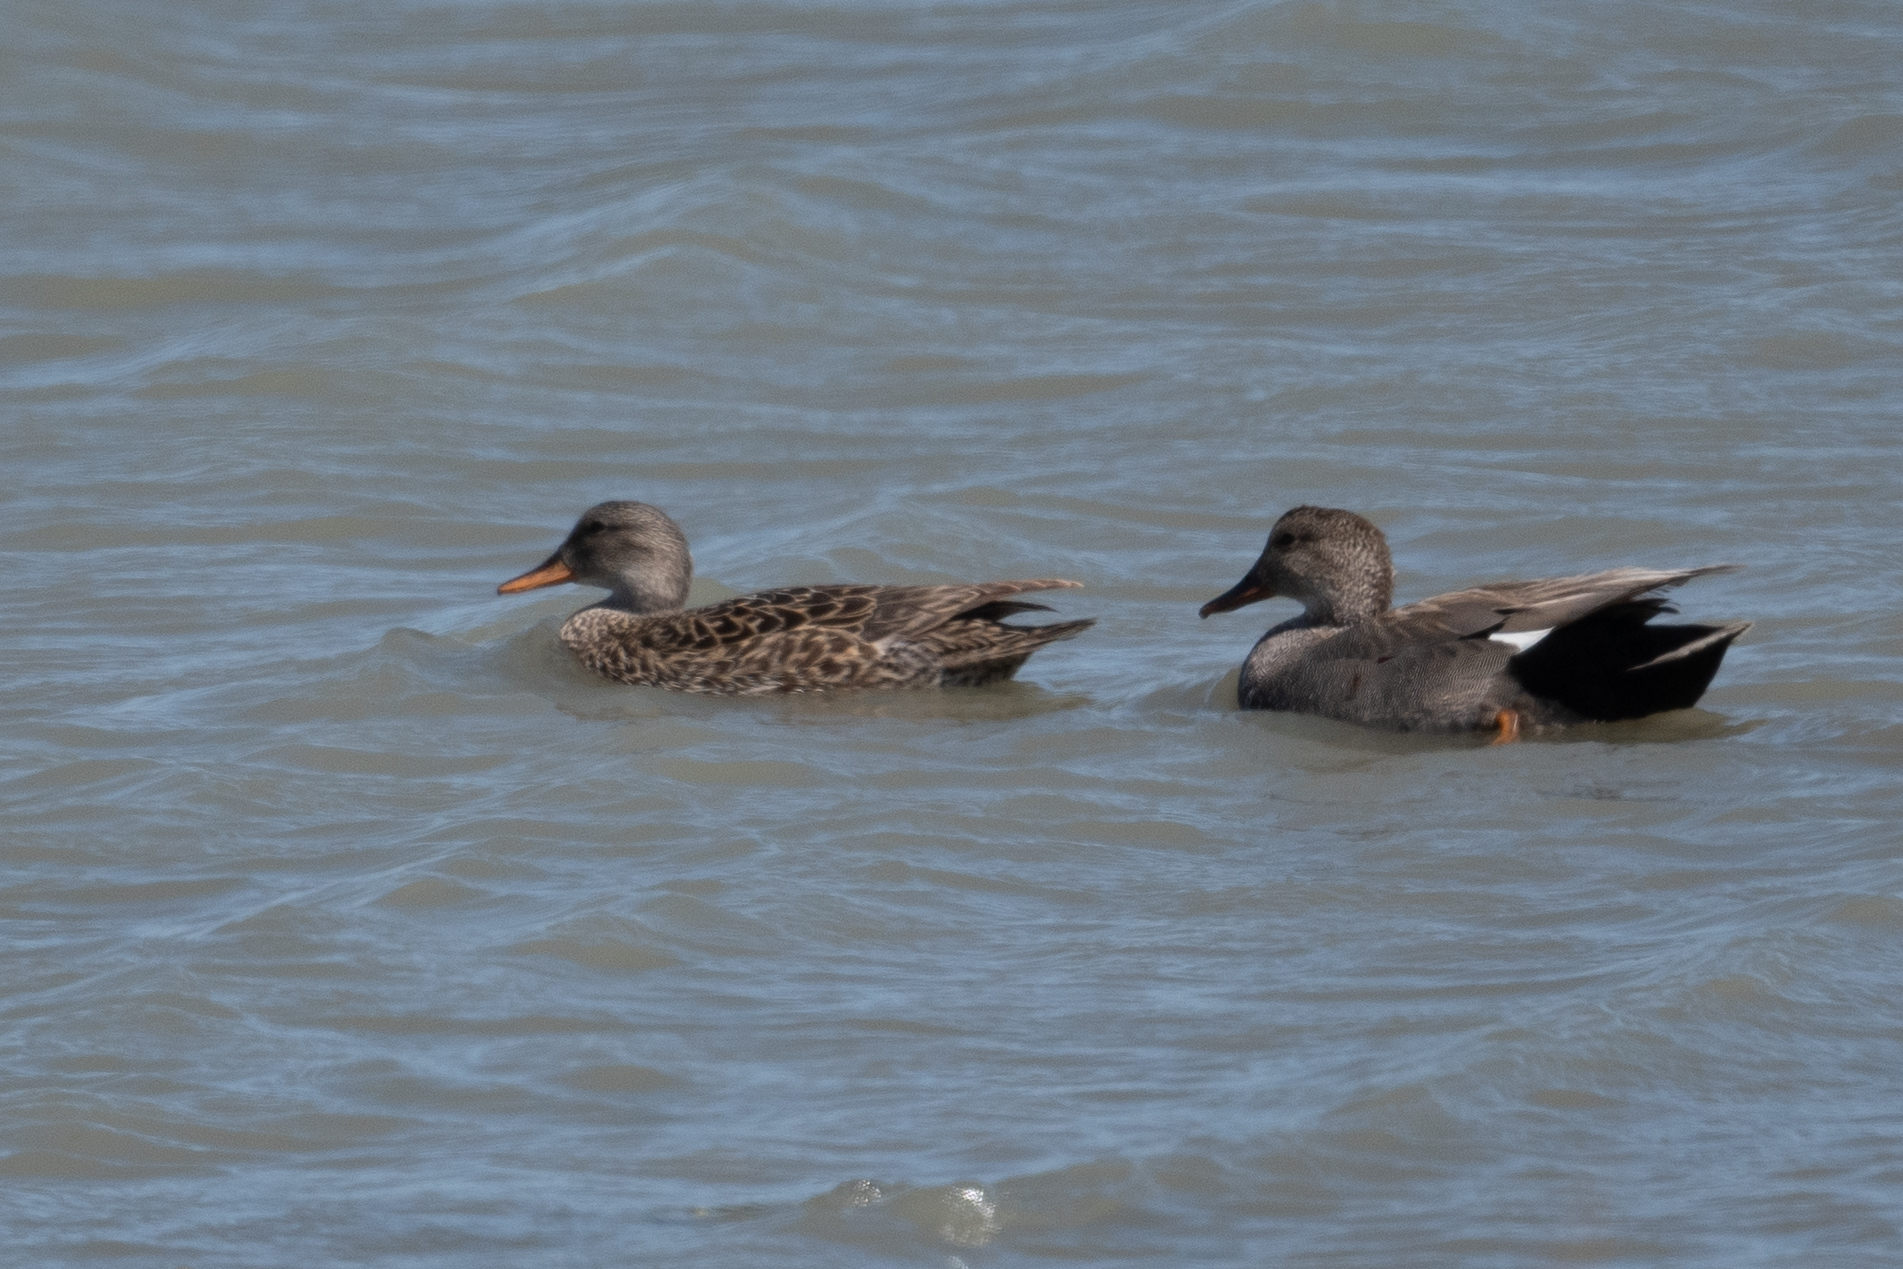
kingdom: Animalia
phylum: Chordata
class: Aves
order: Anseriformes
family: Anatidae
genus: Mareca
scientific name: Mareca strepera
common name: Gadwall
